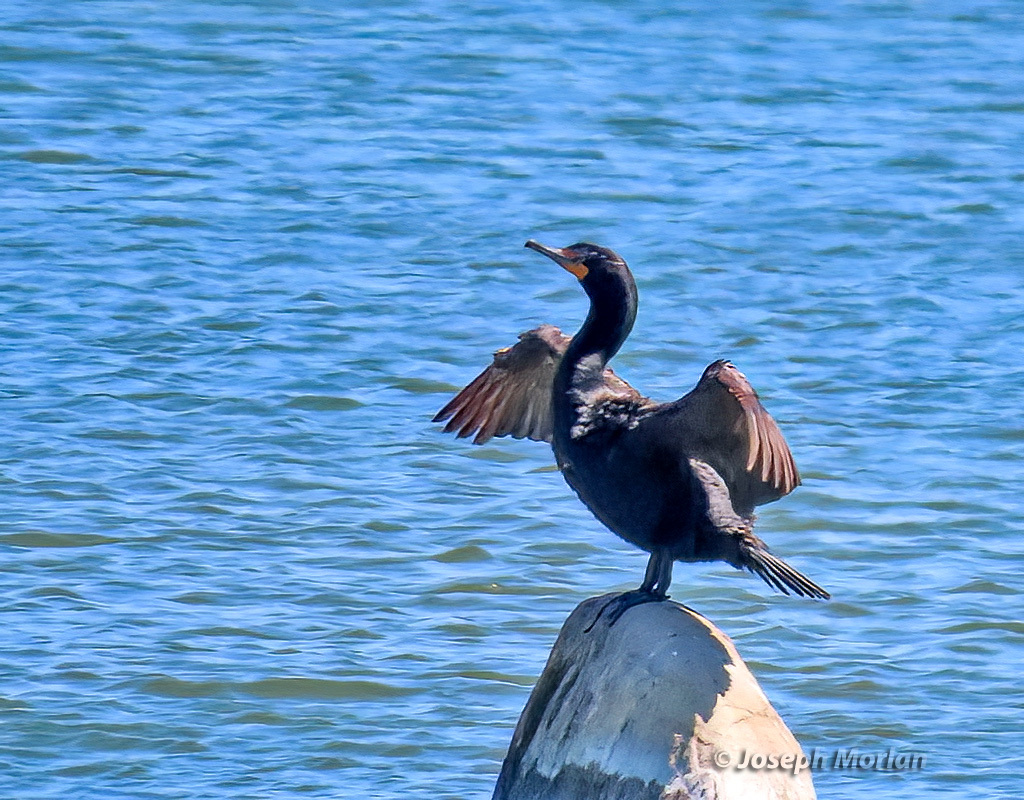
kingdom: Animalia
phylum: Chordata
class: Aves
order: Suliformes
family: Phalacrocoracidae
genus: Phalacrocorax
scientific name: Phalacrocorax auritus
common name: Double-crested cormorant
